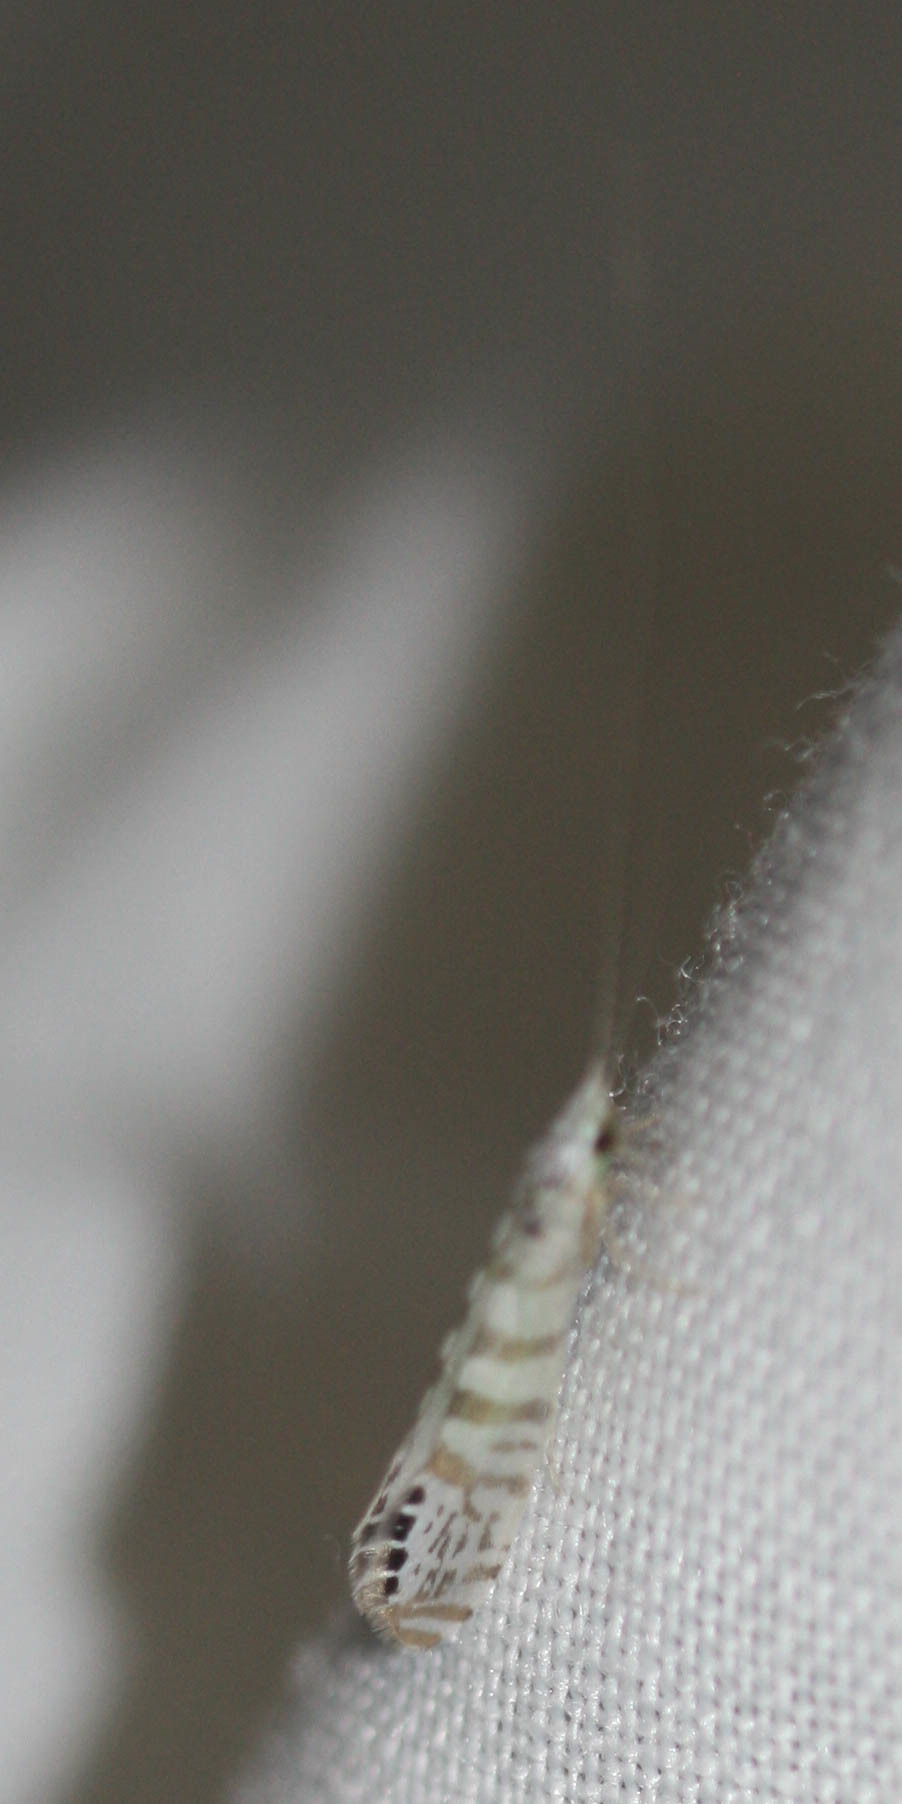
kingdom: Animalia
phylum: Arthropoda
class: Insecta
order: Trichoptera
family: Leptoceridae
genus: Nectopsyche
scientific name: Nectopsyche exquisita
